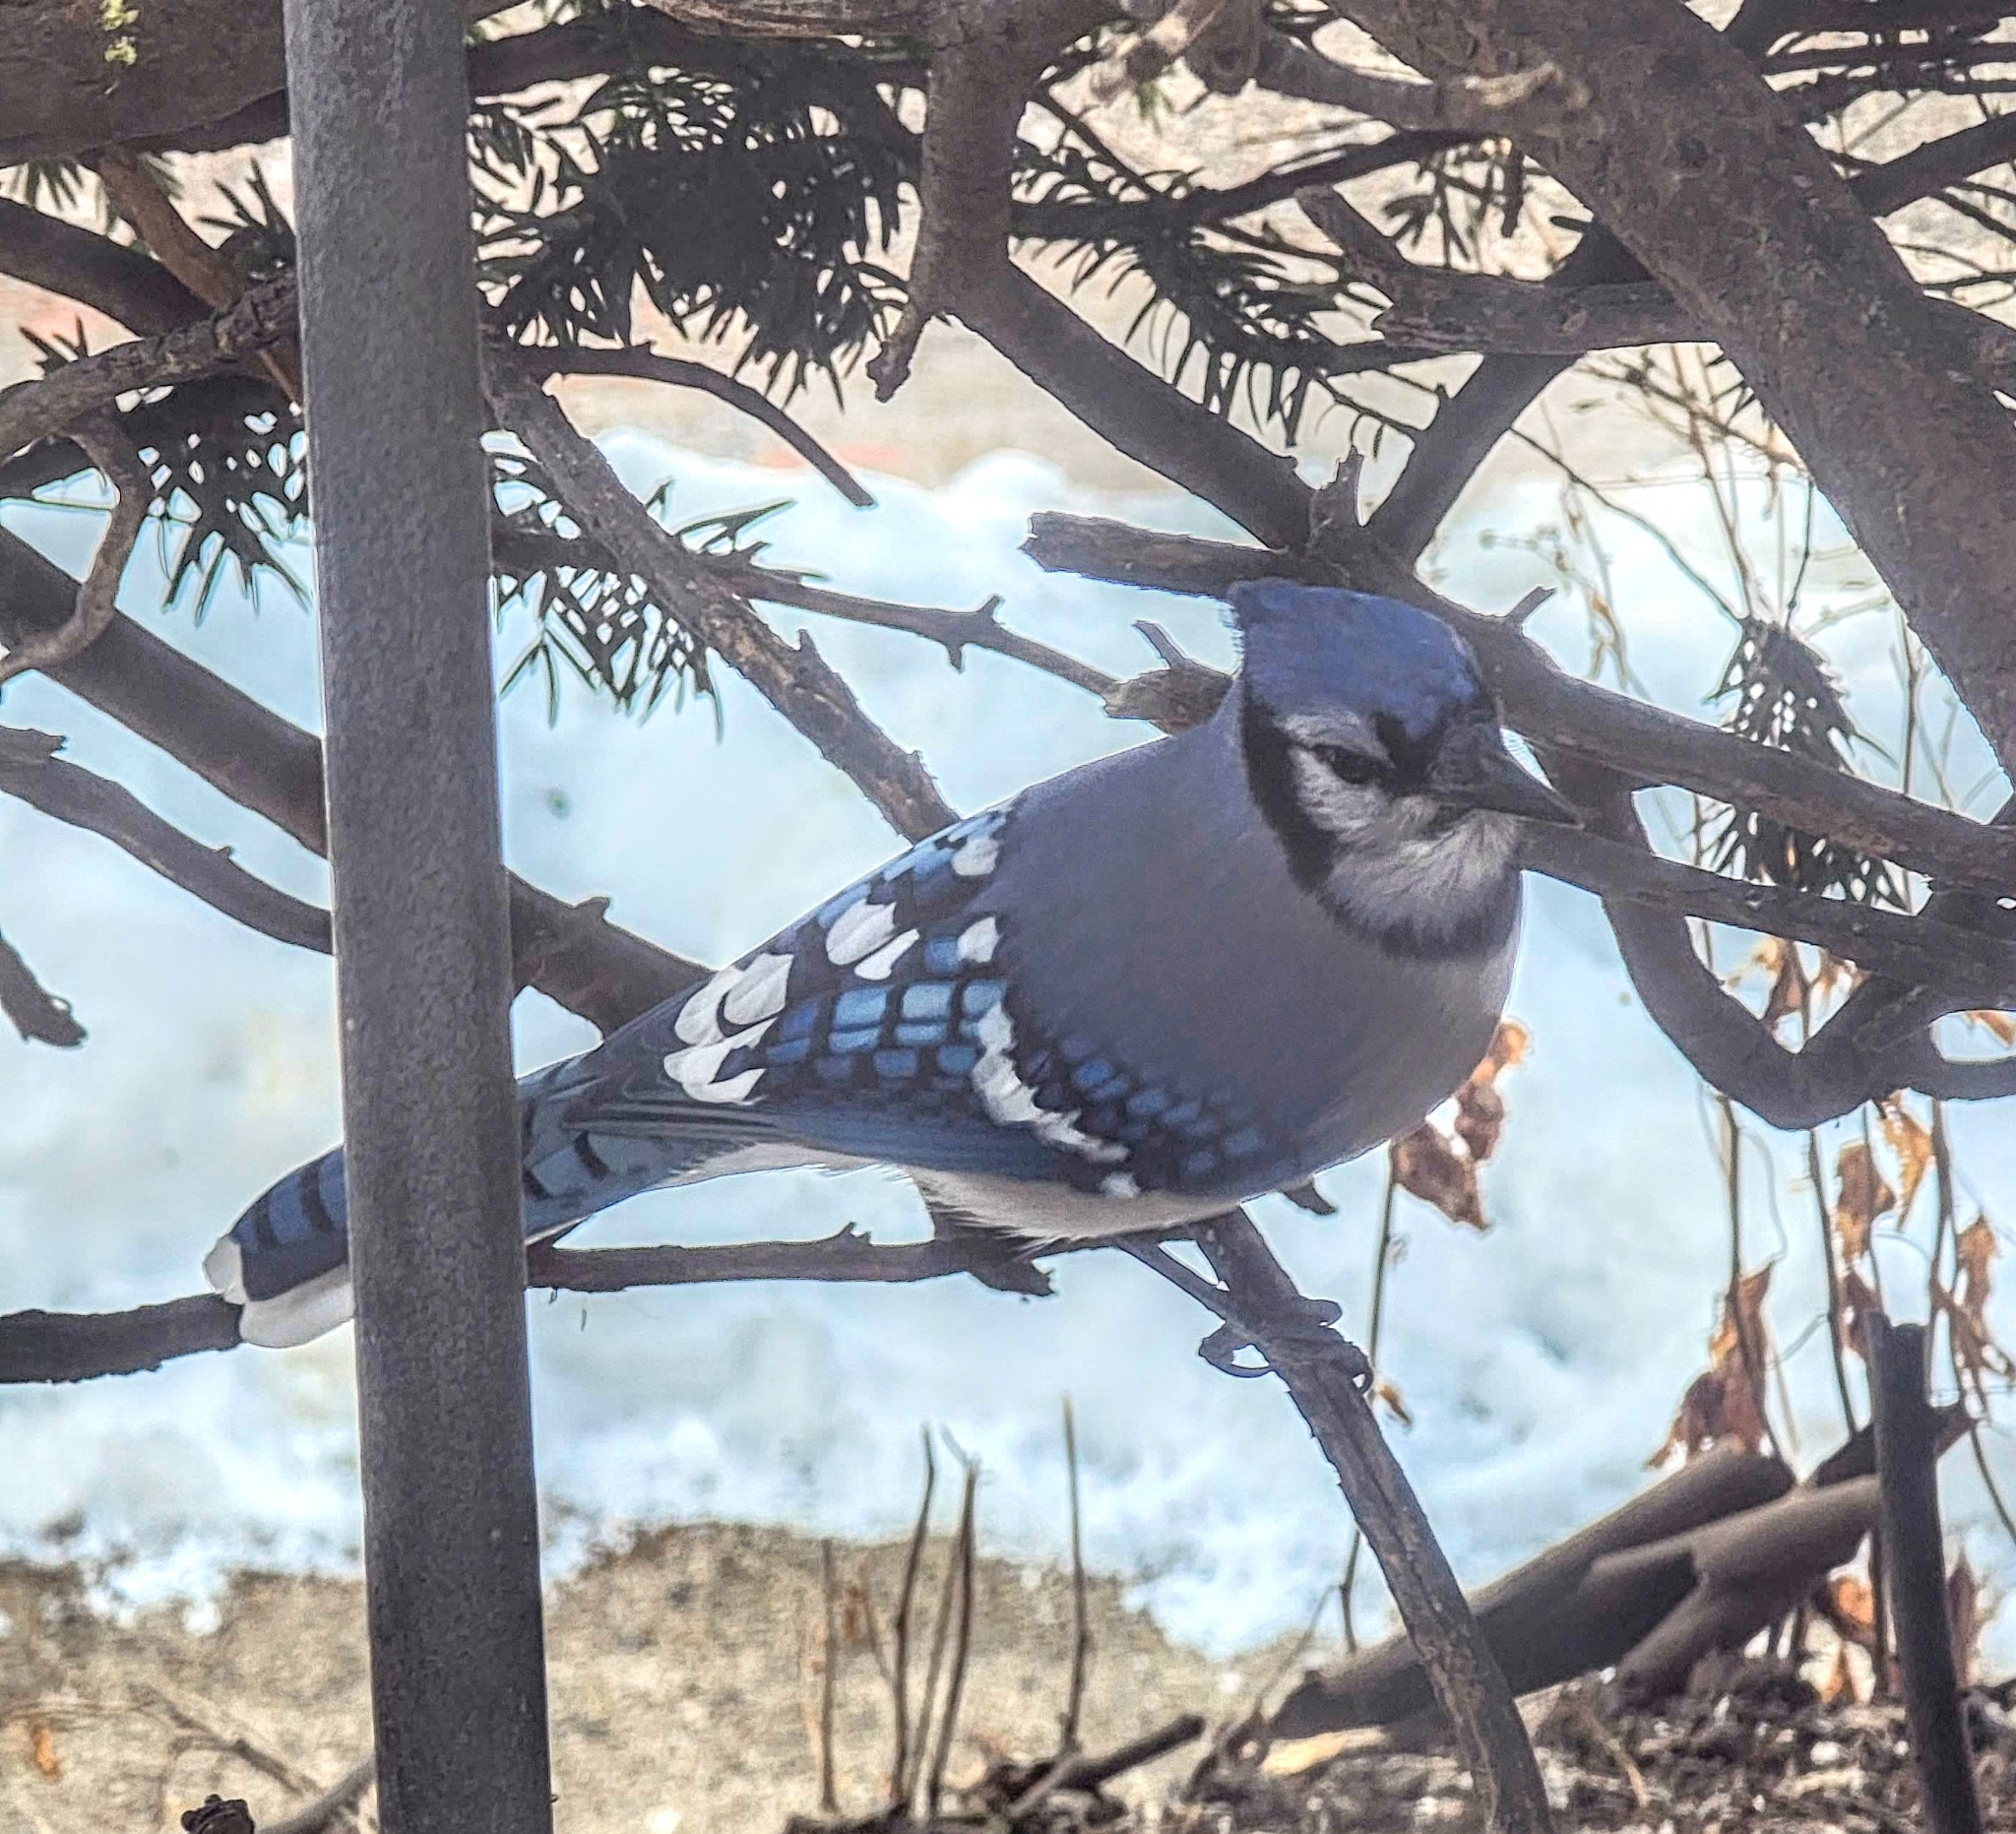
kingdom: Animalia
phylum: Chordata
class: Aves
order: Passeriformes
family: Corvidae
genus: Cyanocitta
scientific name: Cyanocitta cristata
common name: Blue jay
